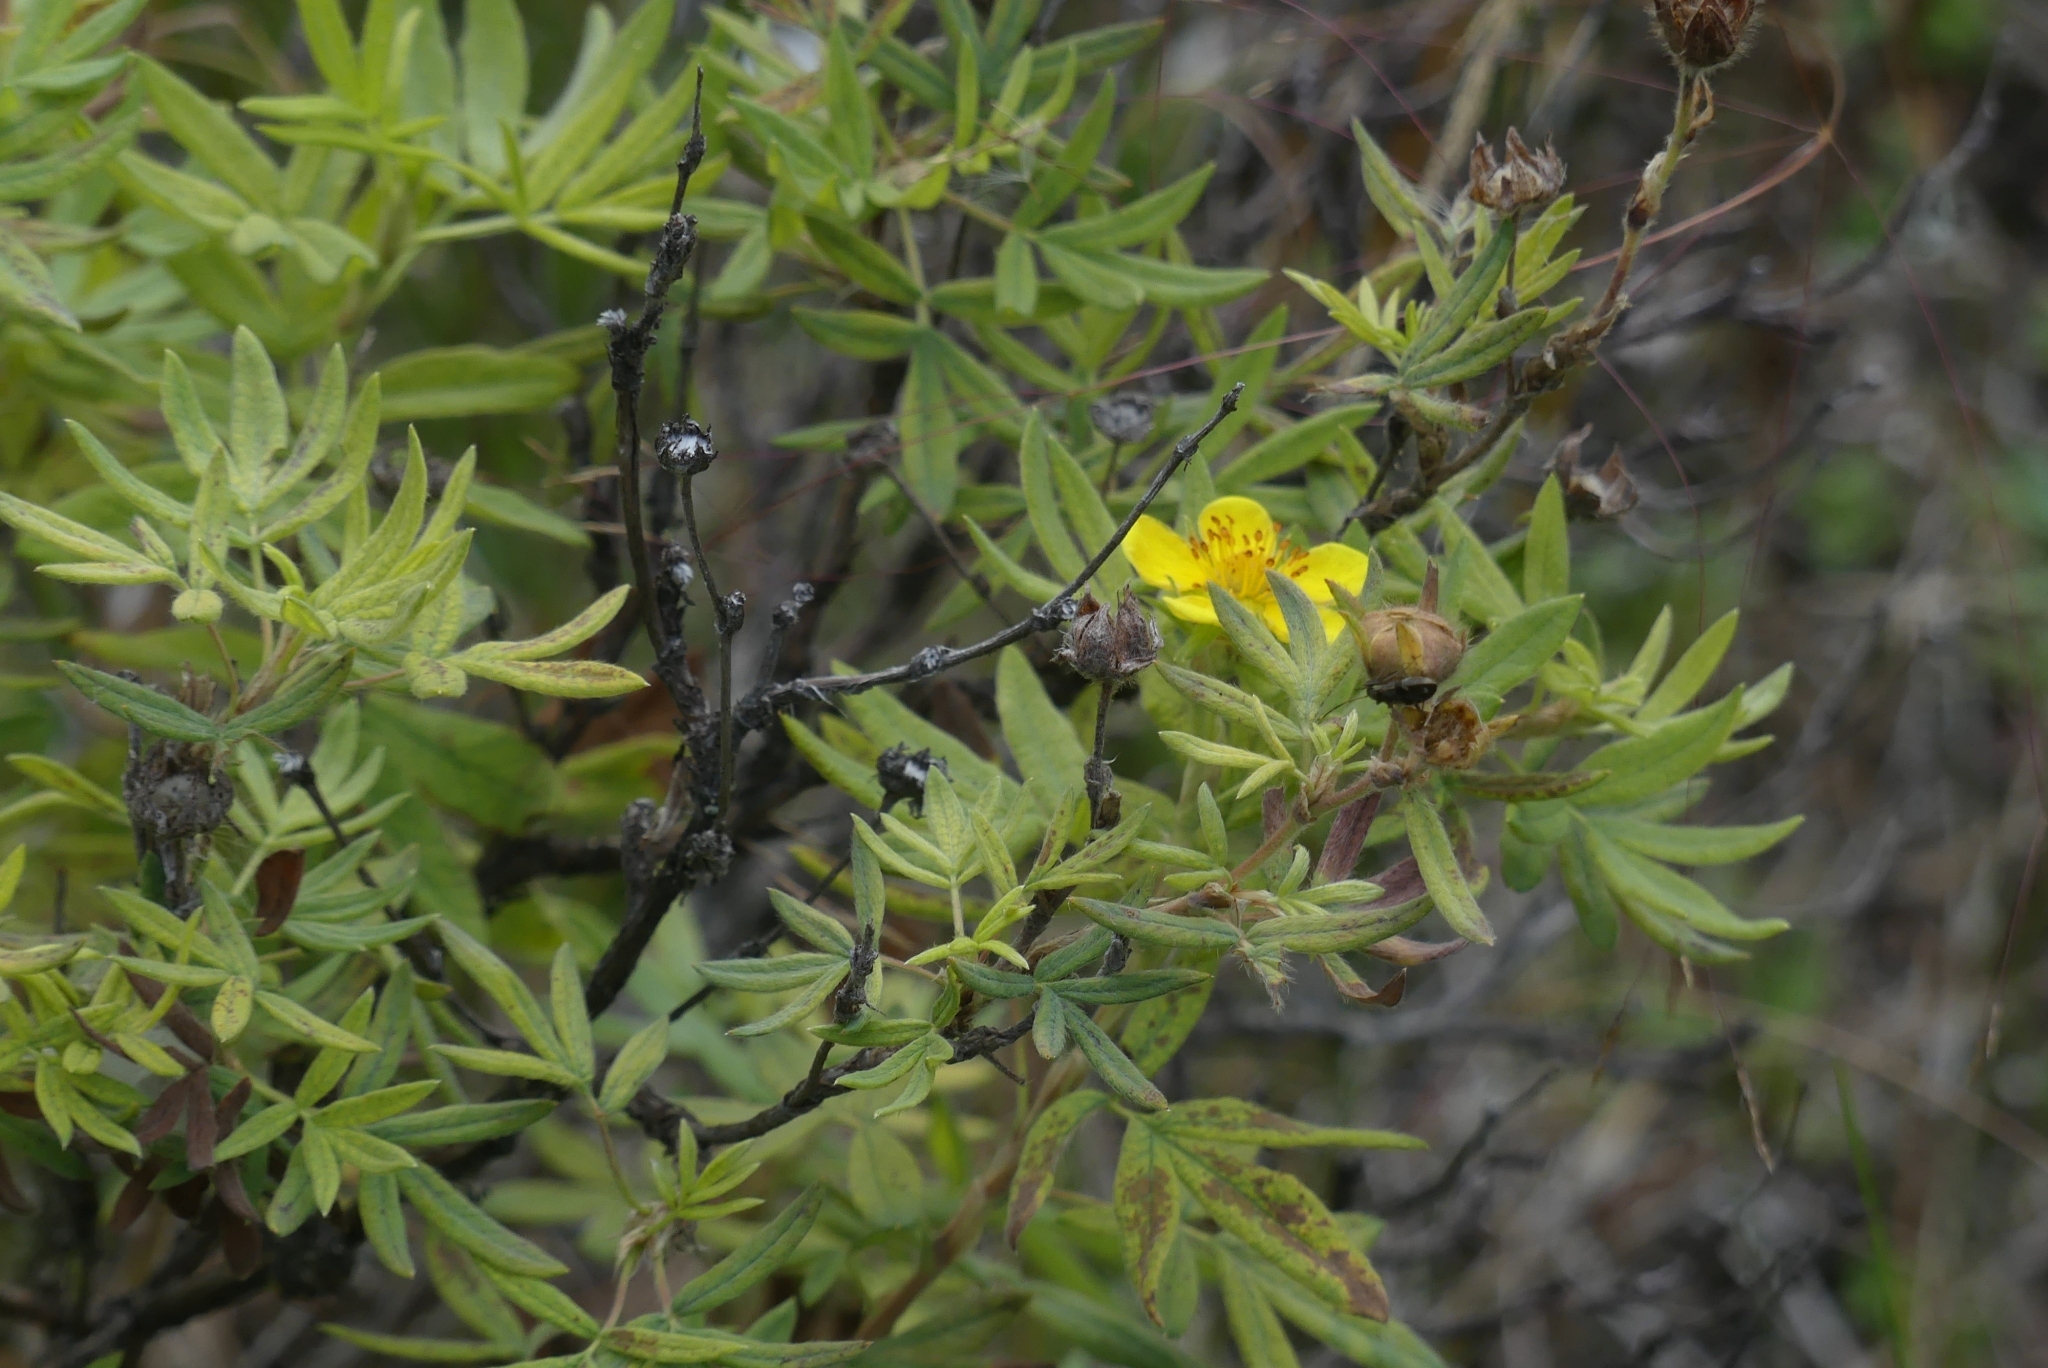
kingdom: Plantae
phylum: Tracheophyta
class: Magnoliopsida
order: Rosales
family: Rosaceae
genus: Dasiphora
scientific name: Dasiphora fruticosa
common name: Shrubby cinquefoil
